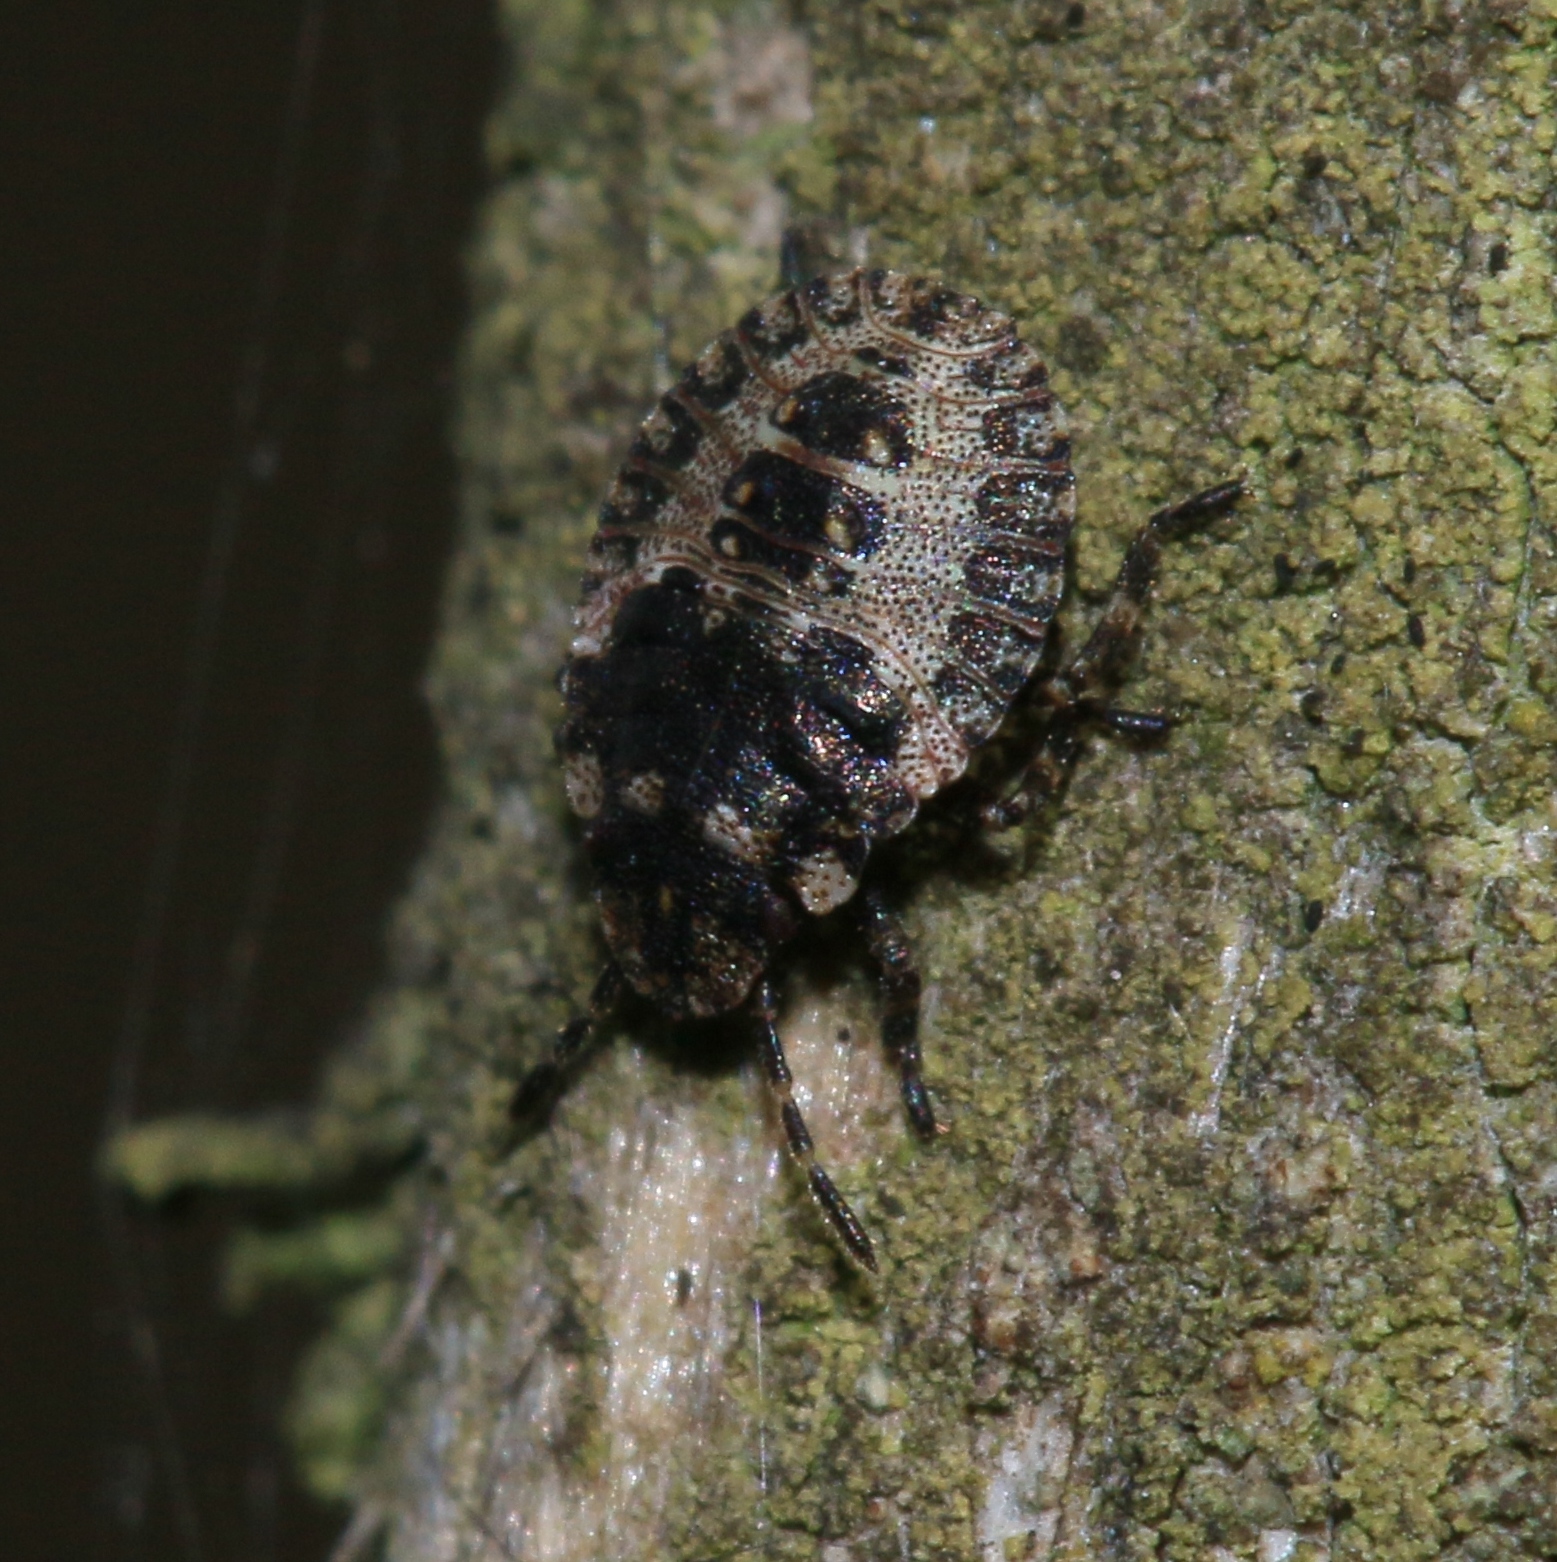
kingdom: Animalia
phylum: Arthropoda
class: Insecta
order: Hemiptera
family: Pentatomidae
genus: Pentatoma
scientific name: Pentatoma rufipes
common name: Forest bug
